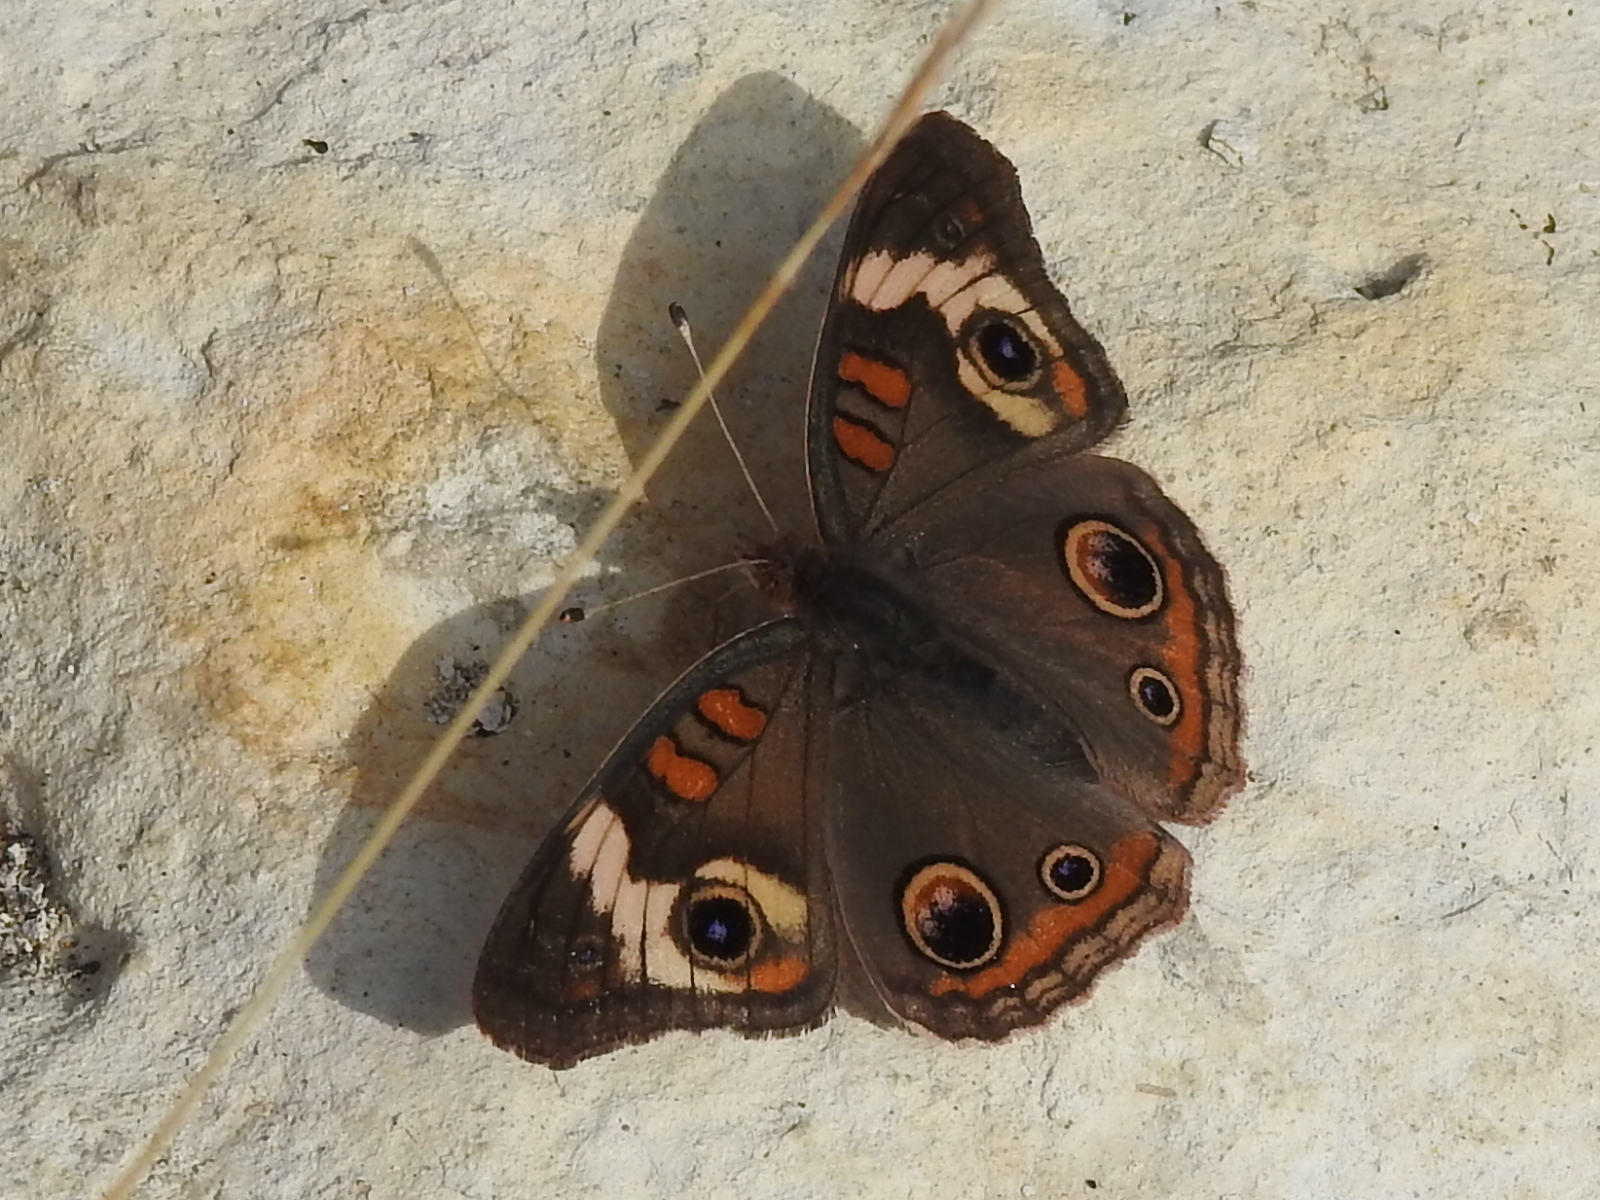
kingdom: Animalia
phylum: Arthropoda
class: Insecta
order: Lepidoptera
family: Nymphalidae
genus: Junonia
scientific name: Junonia coenia
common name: Common buckeye
